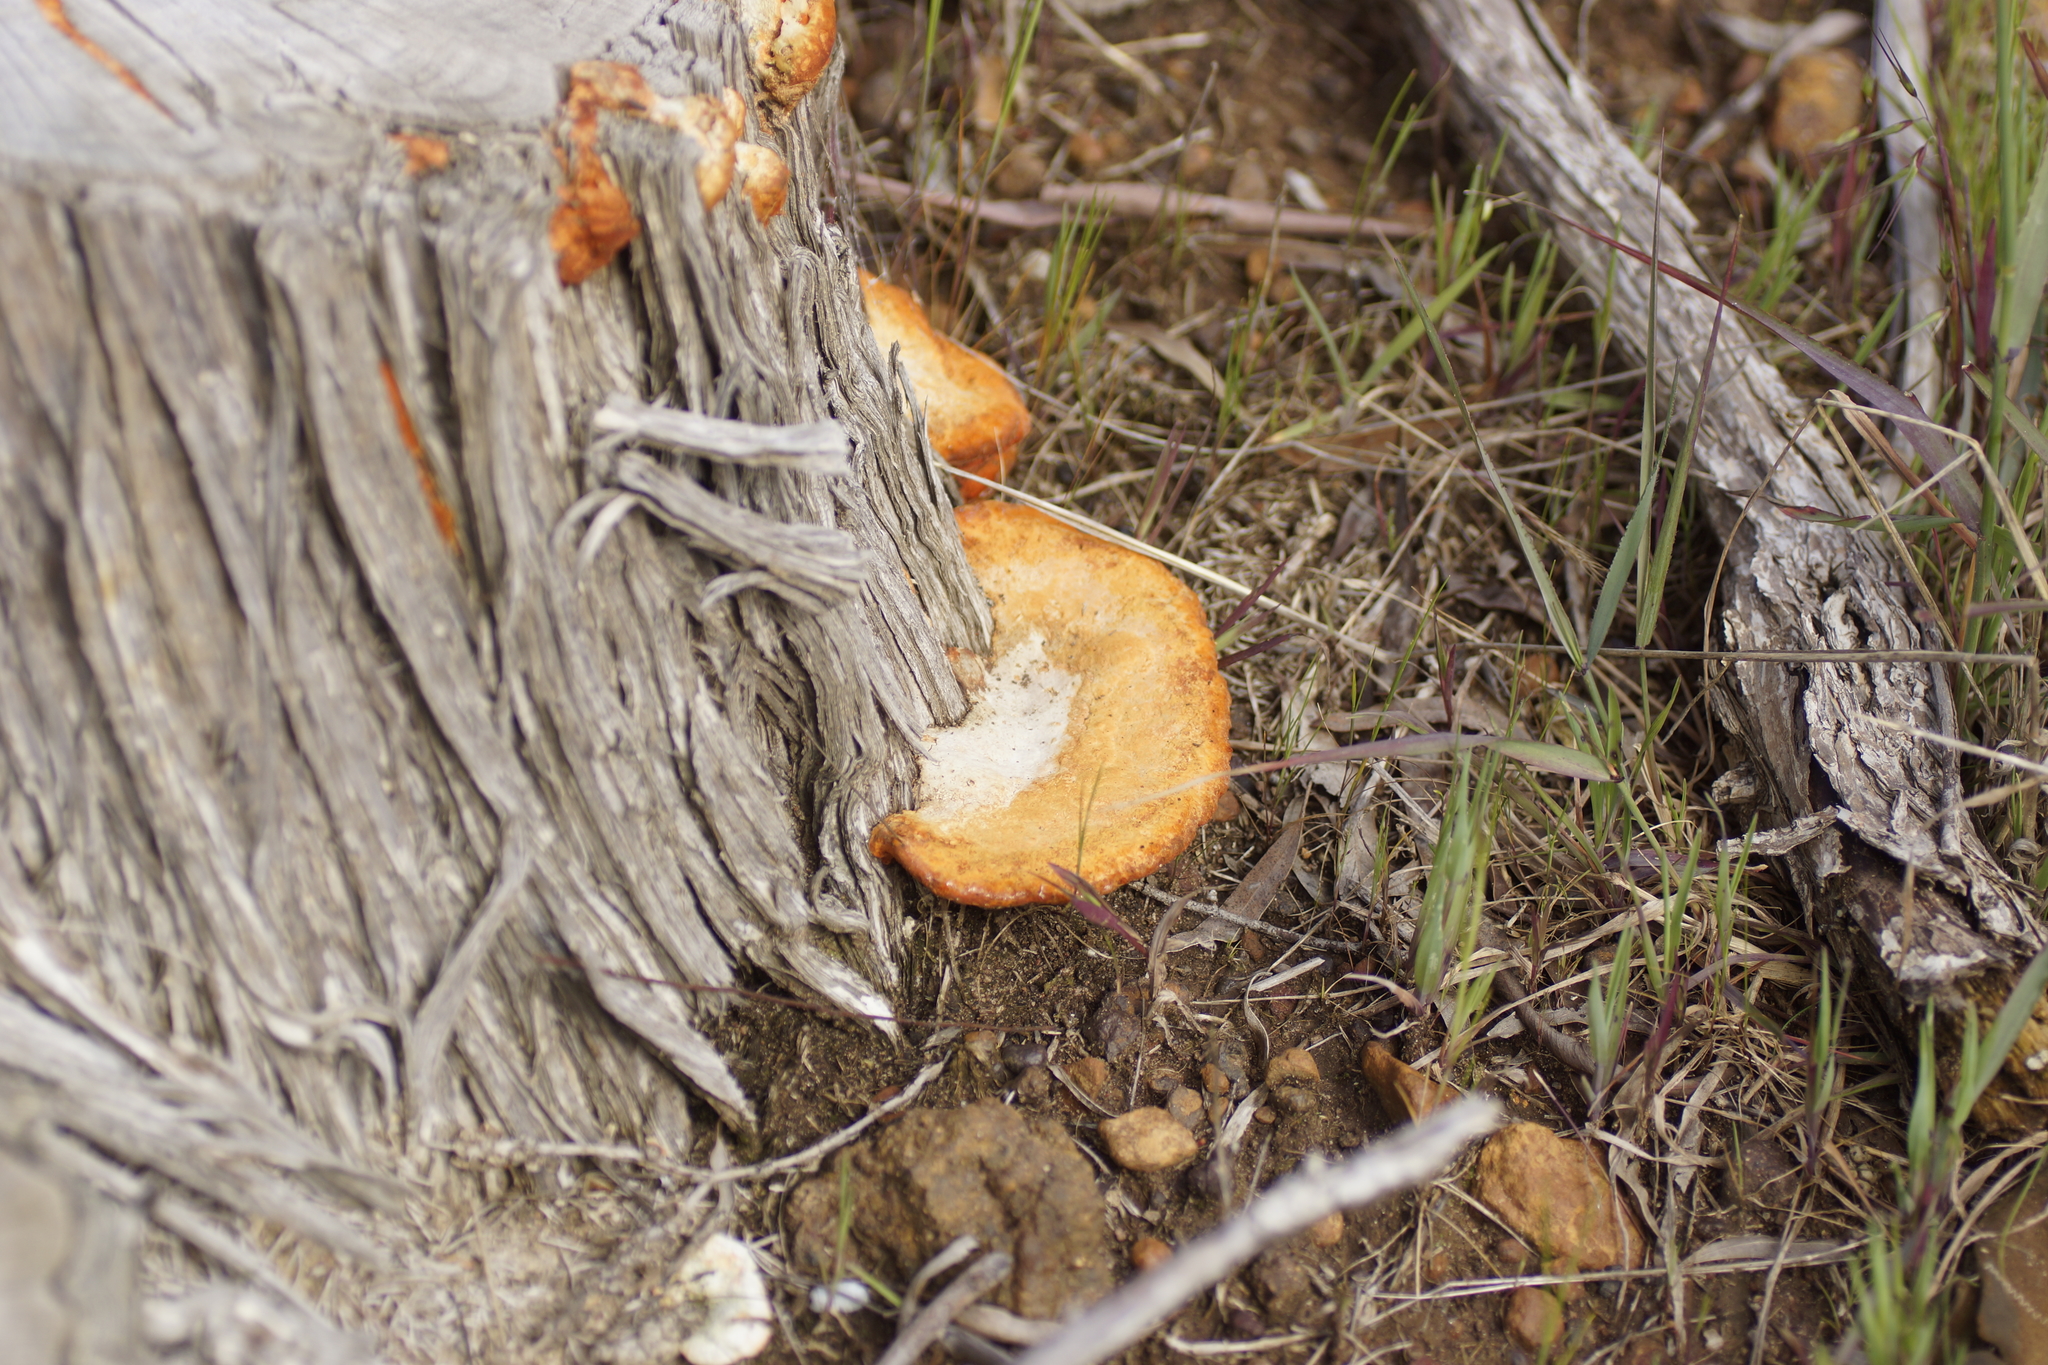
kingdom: Fungi
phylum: Basidiomycota
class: Agaricomycetes
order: Polyporales
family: Polyporaceae
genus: Trametes
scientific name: Trametes coccinea
